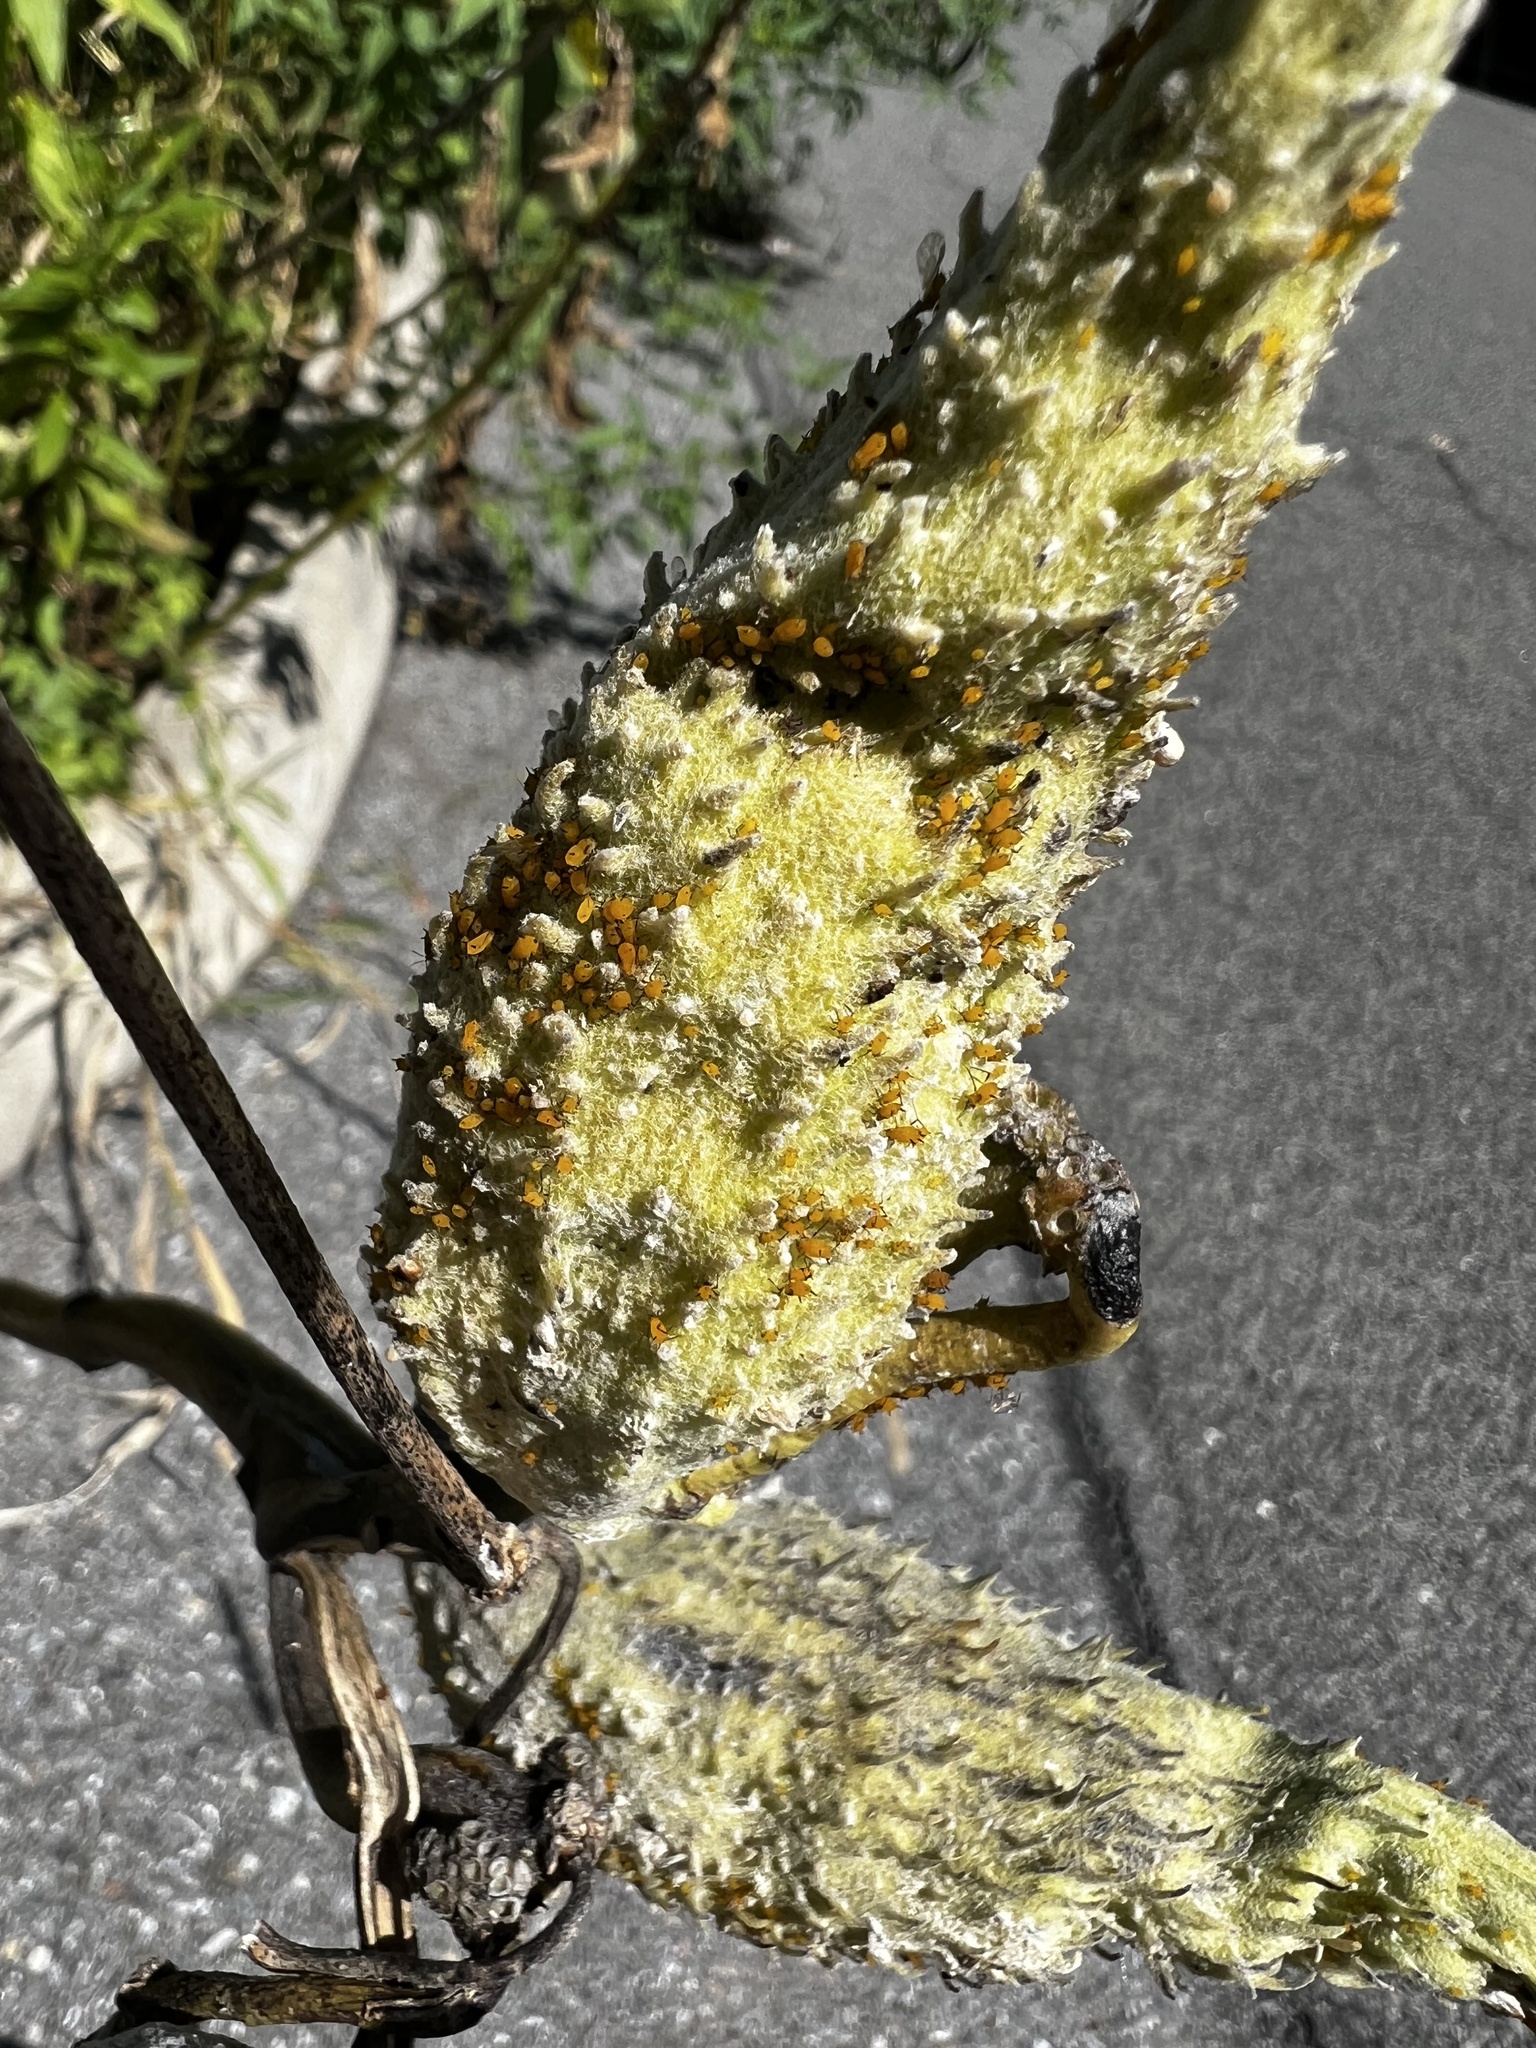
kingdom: Animalia
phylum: Arthropoda
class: Insecta
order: Hemiptera
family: Aphididae
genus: Aphis
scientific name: Aphis nerii
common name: Oleander aphid
